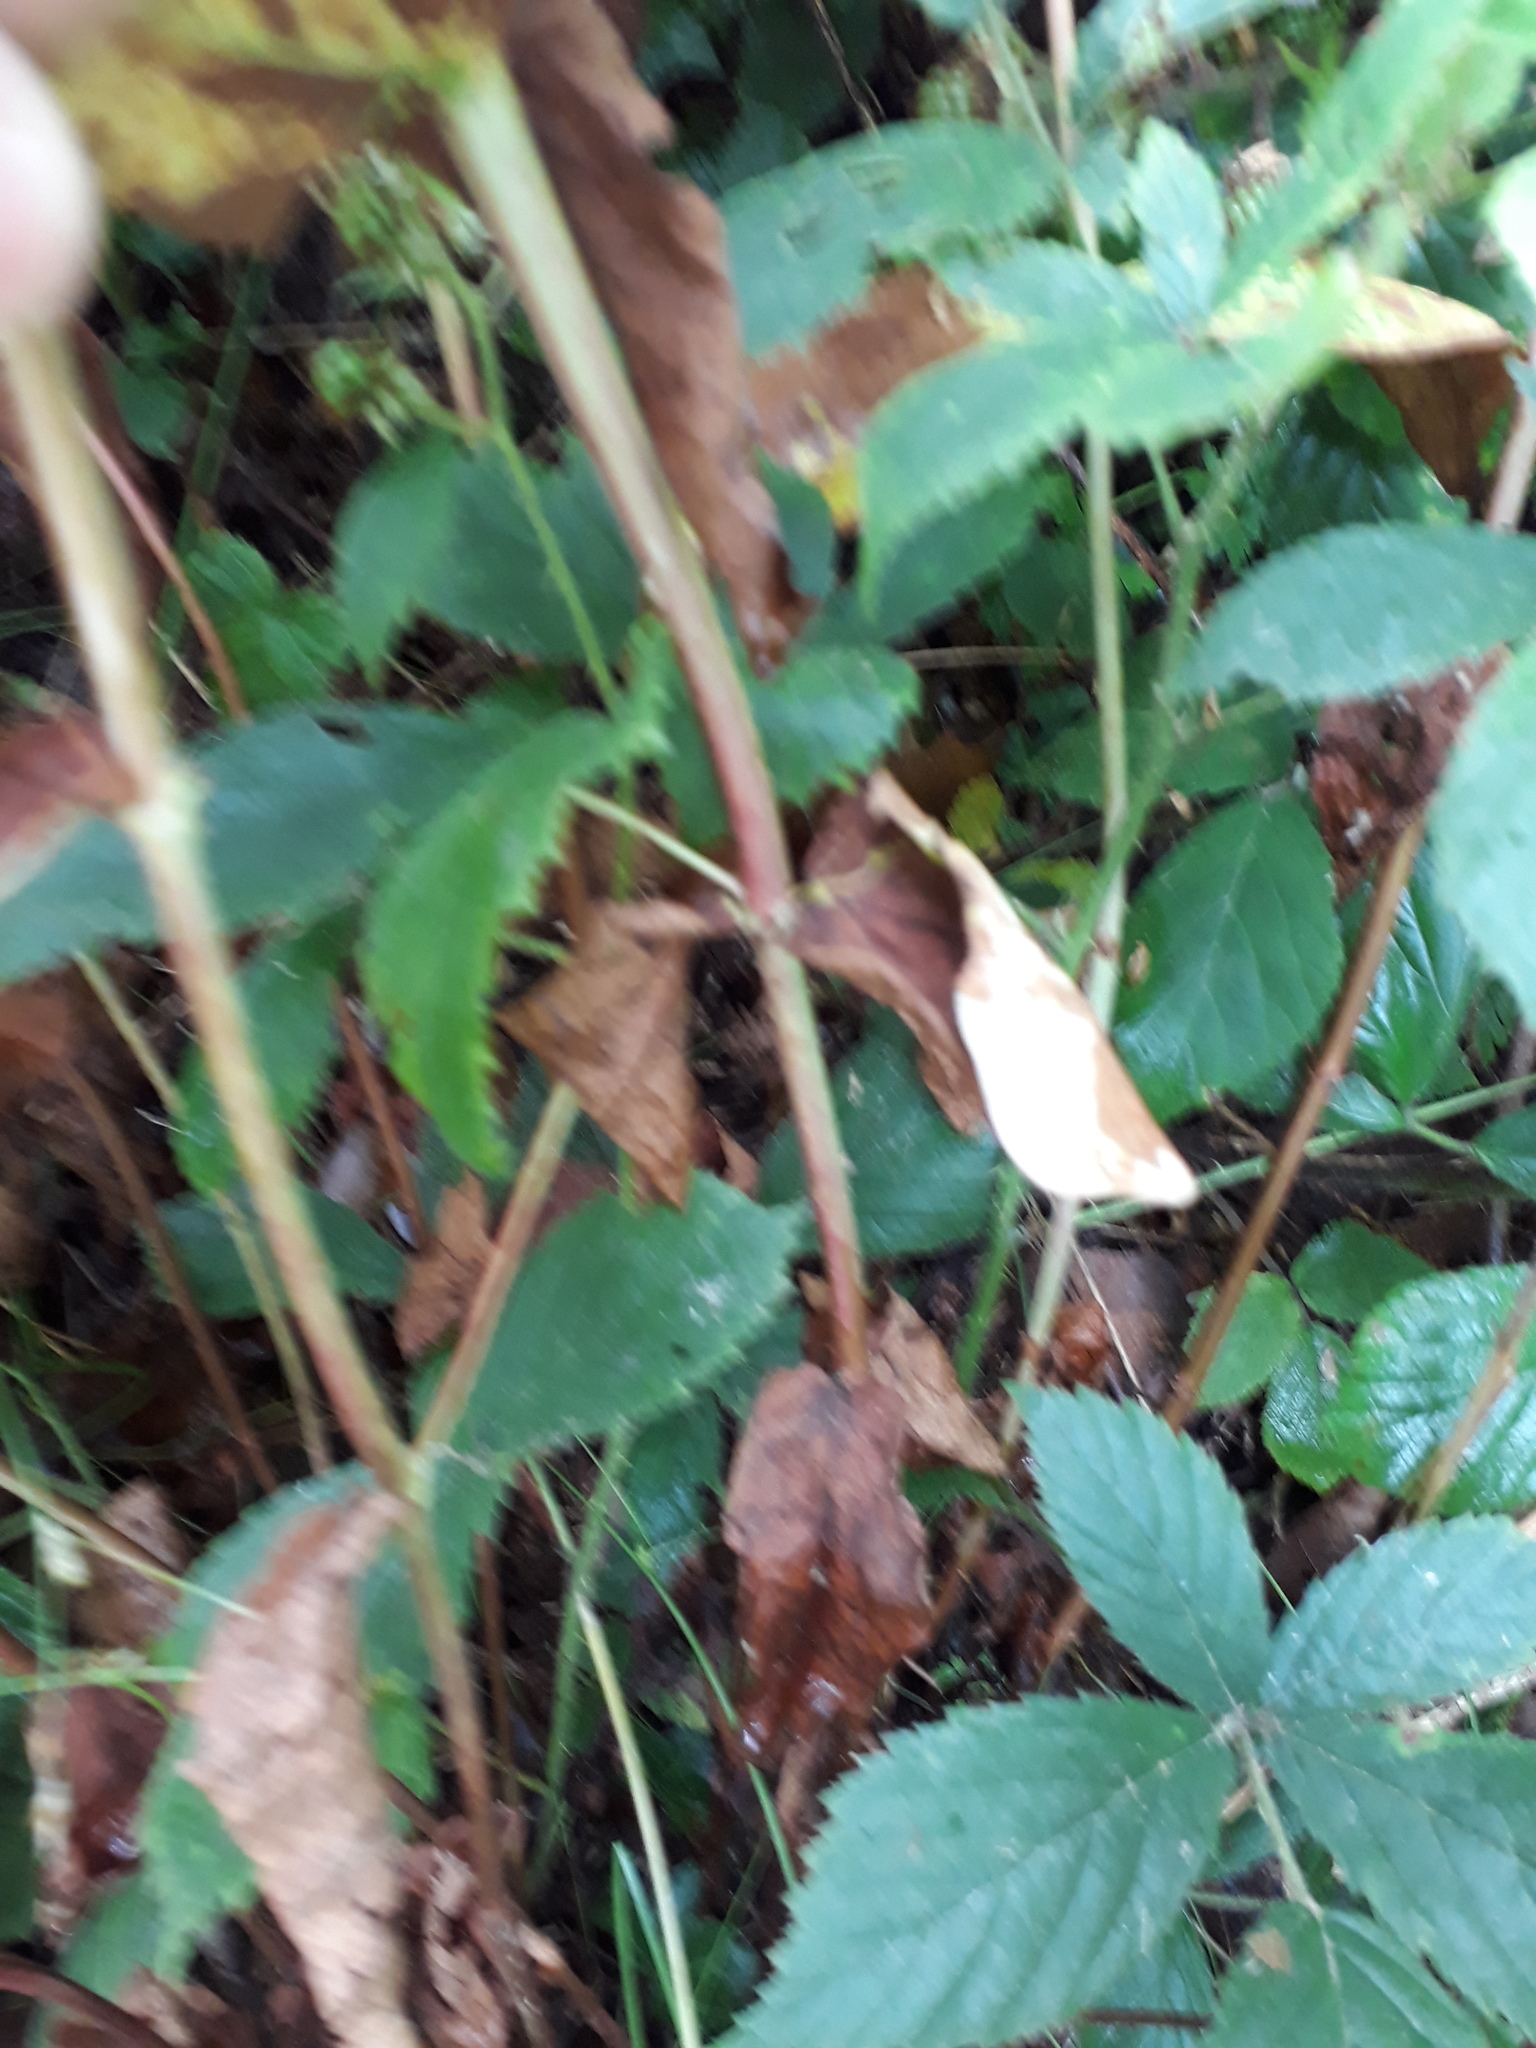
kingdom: Plantae
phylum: Tracheophyta
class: Magnoliopsida
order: Malpighiales
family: Hypericaceae
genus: Hypericum
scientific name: Hypericum androsaemum
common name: Sweet-amber
